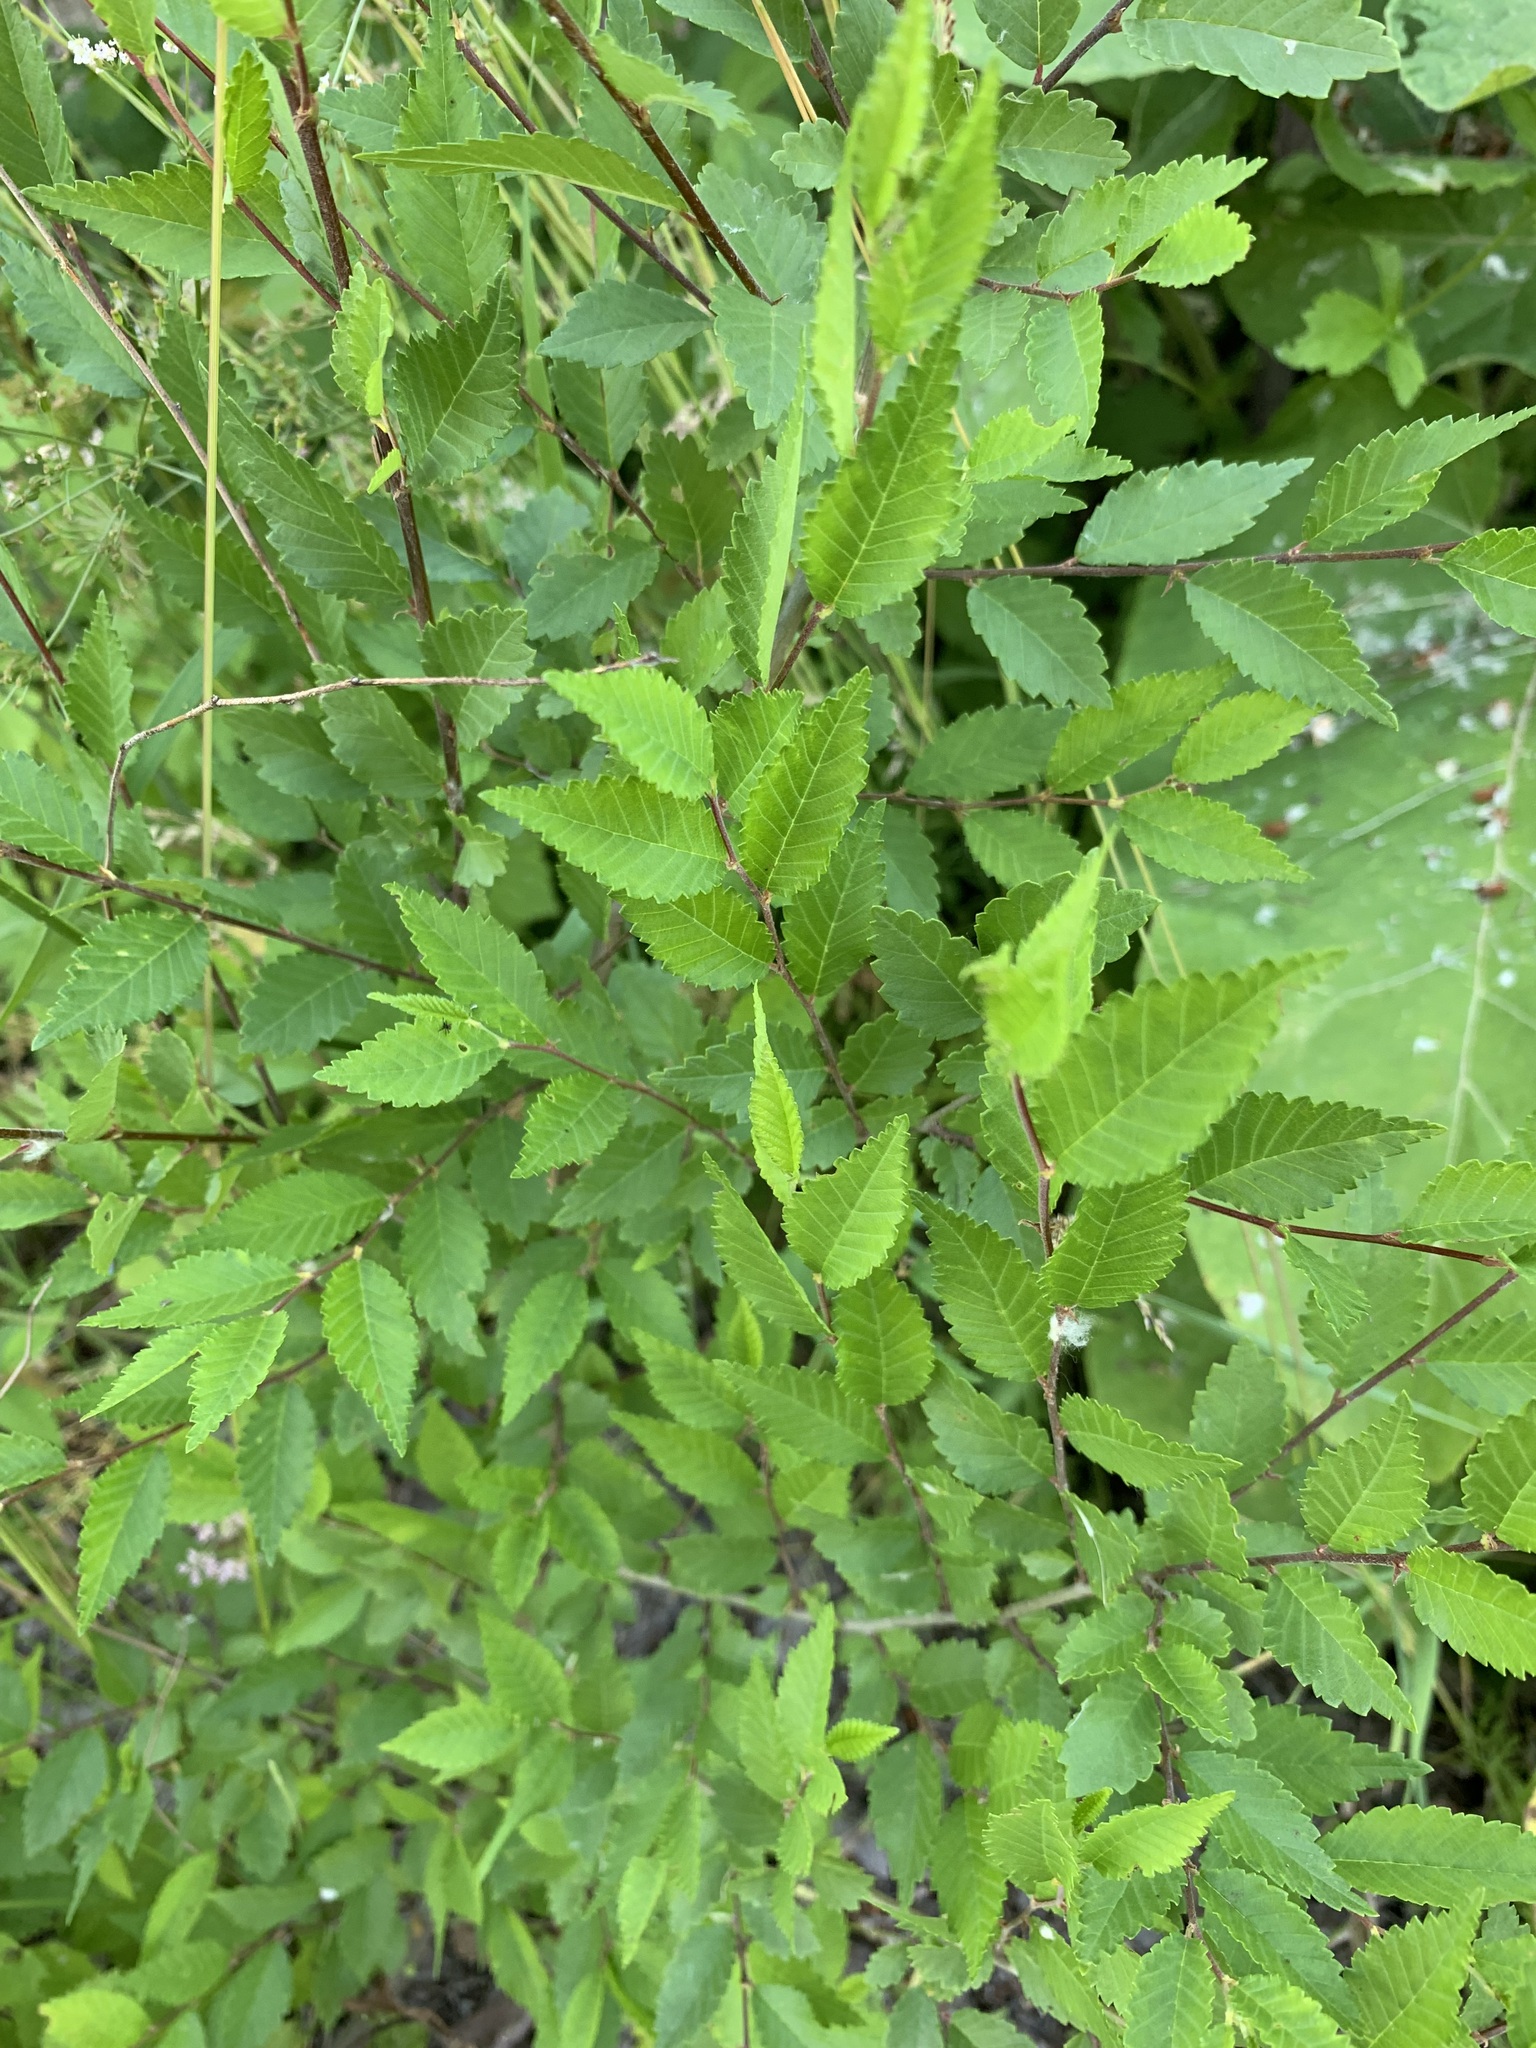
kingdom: Plantae
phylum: Tracheophyta
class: Magnoliopsida
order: Rosales
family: Ulmaceae
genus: Ulmus
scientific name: Ulmus pumila
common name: Siberian elm
